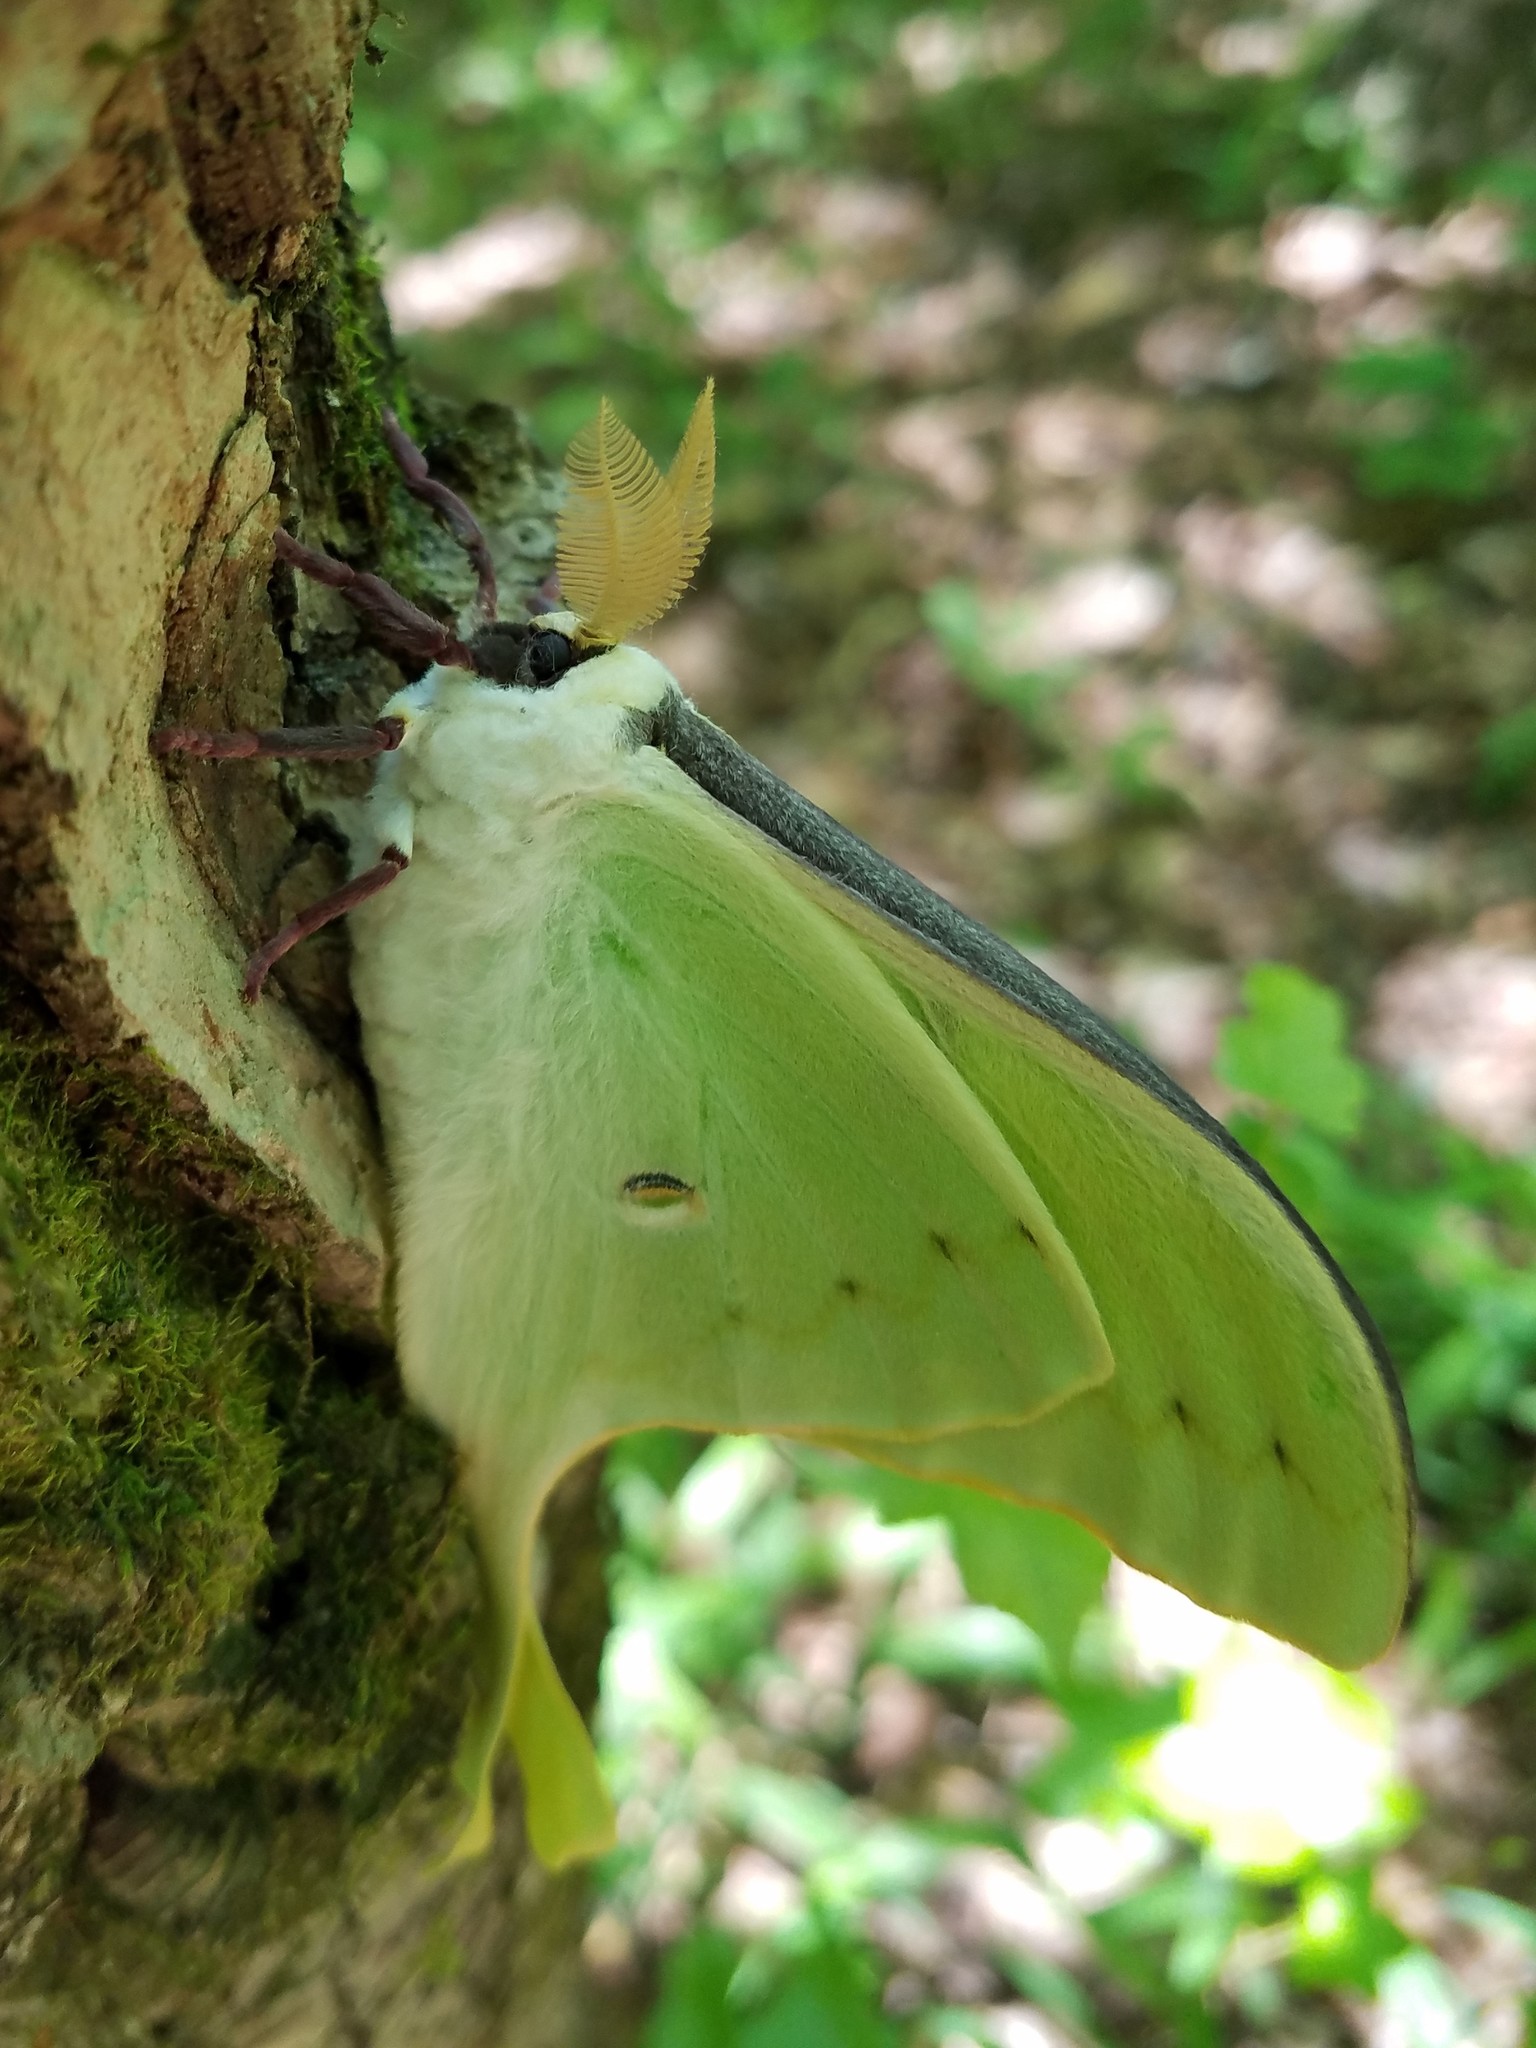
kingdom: Animalia
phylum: Arthropoda
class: Insecta
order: Lepidoptera
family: Saturniidae
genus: Actias
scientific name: Actias luna
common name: Luna moth
